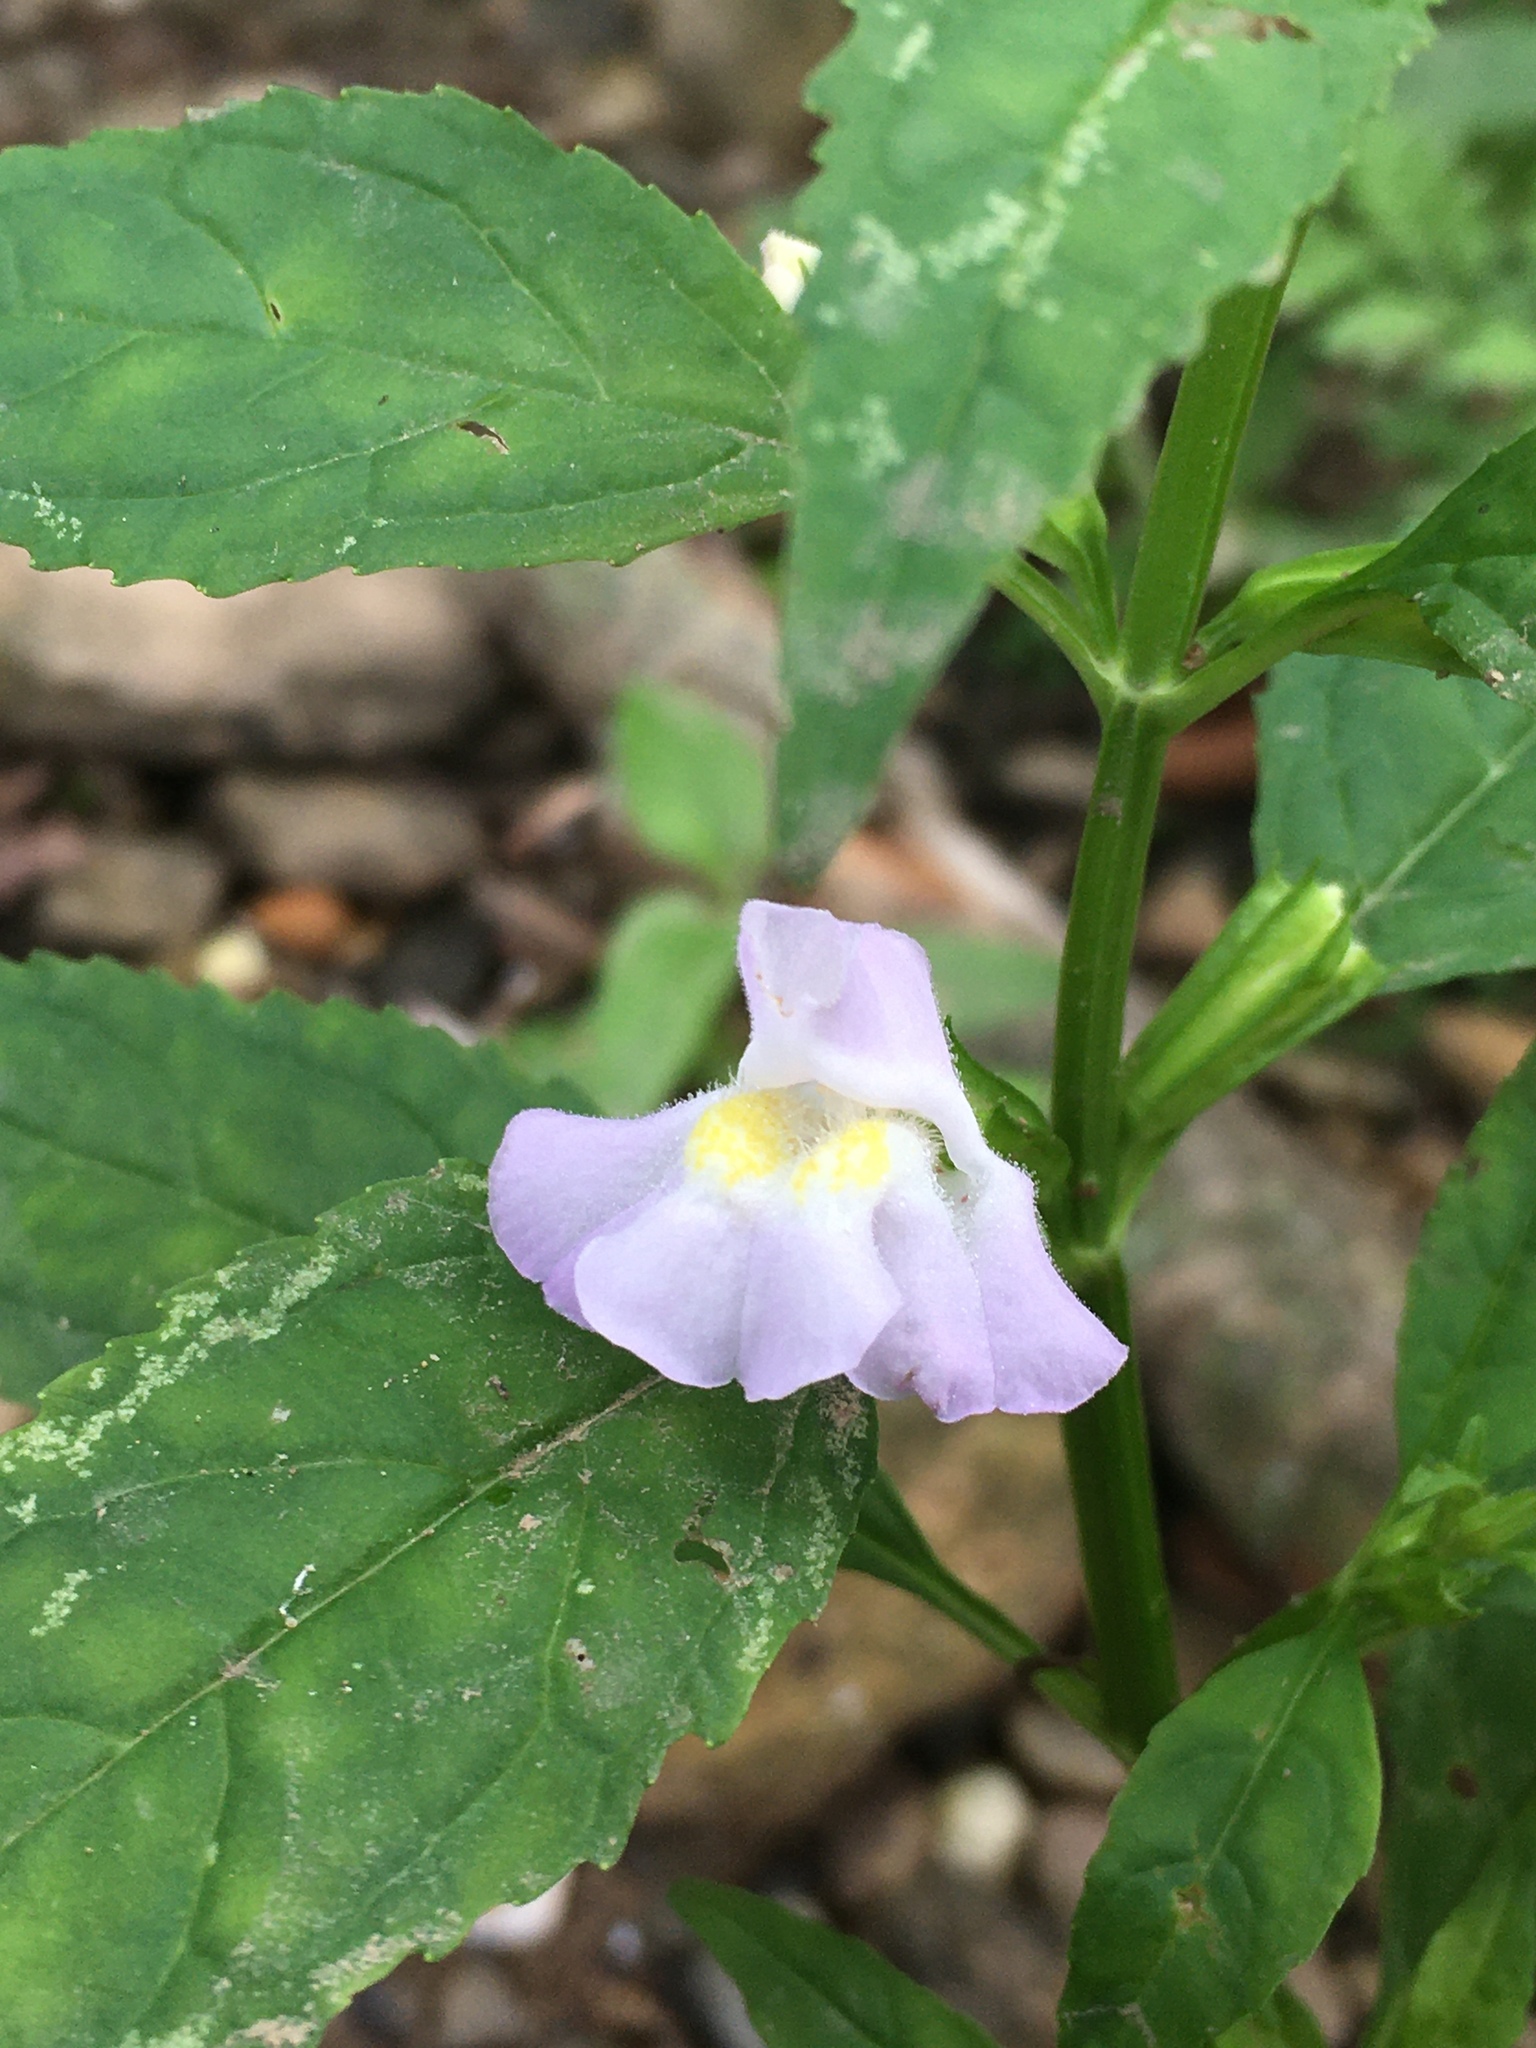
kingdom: Plantae
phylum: Tracheophyta
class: Magnoliopsida
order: Lamiales
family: Phrymaceae
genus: Mimulus
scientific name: Mimulus alatus
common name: Sharp-wing monkey-flower
